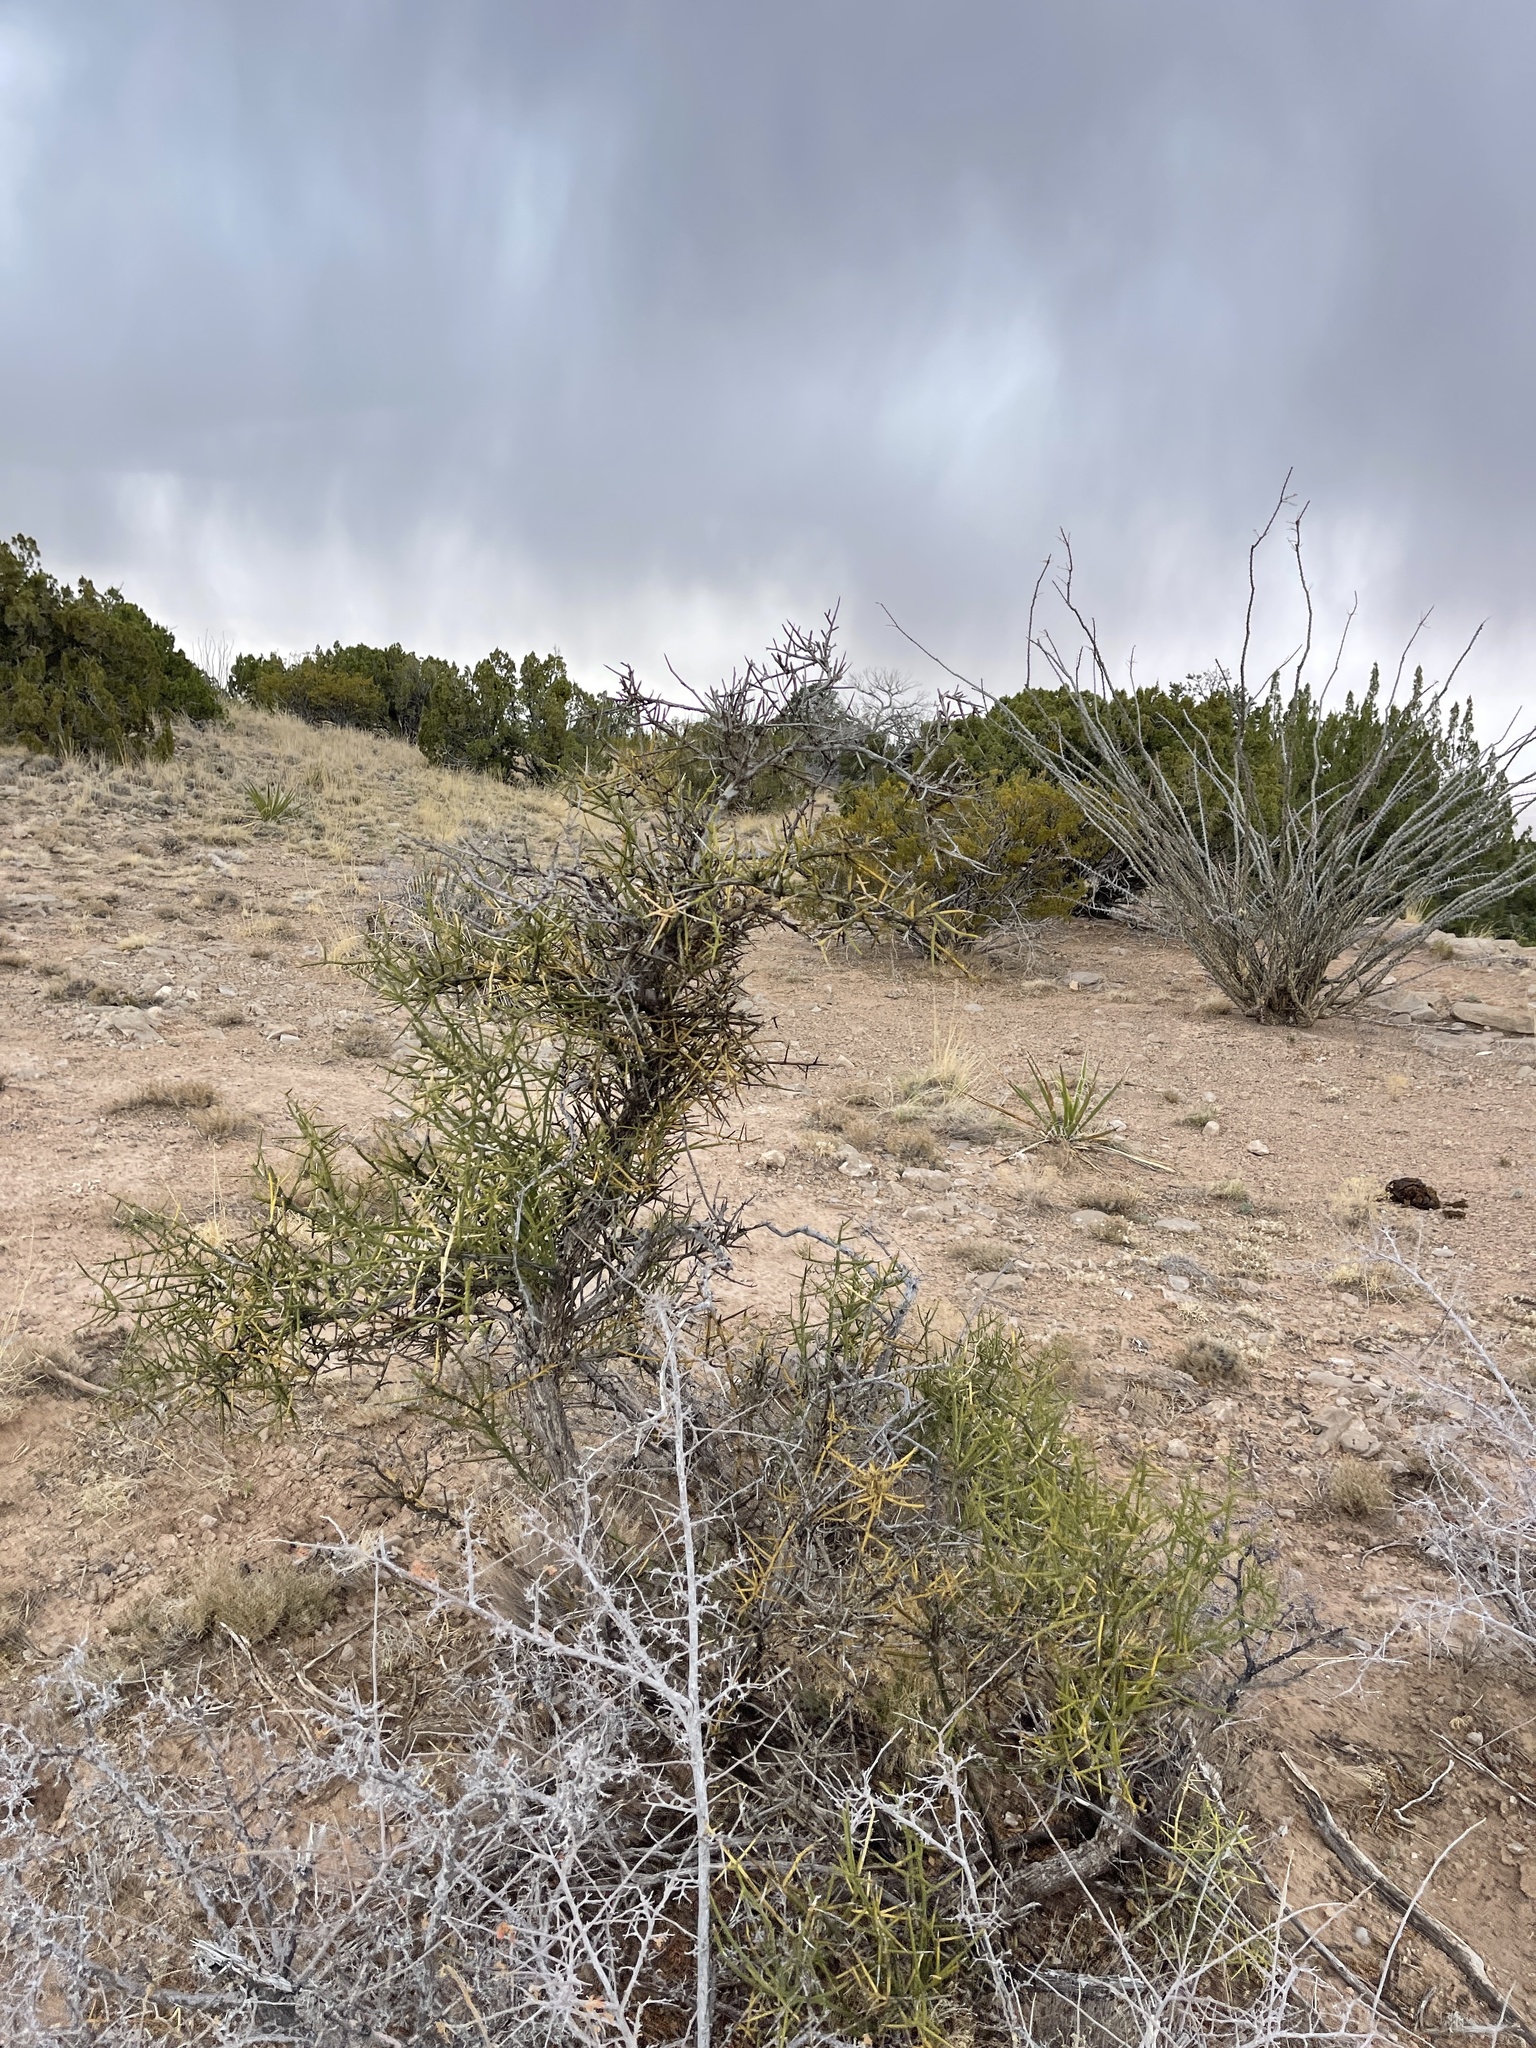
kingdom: Plantae
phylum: Tracheophyta
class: Magnoliopsida
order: Brassicales
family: Koeberliniaceae
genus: Koeberlinia
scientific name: Koeberlinia spinosa
